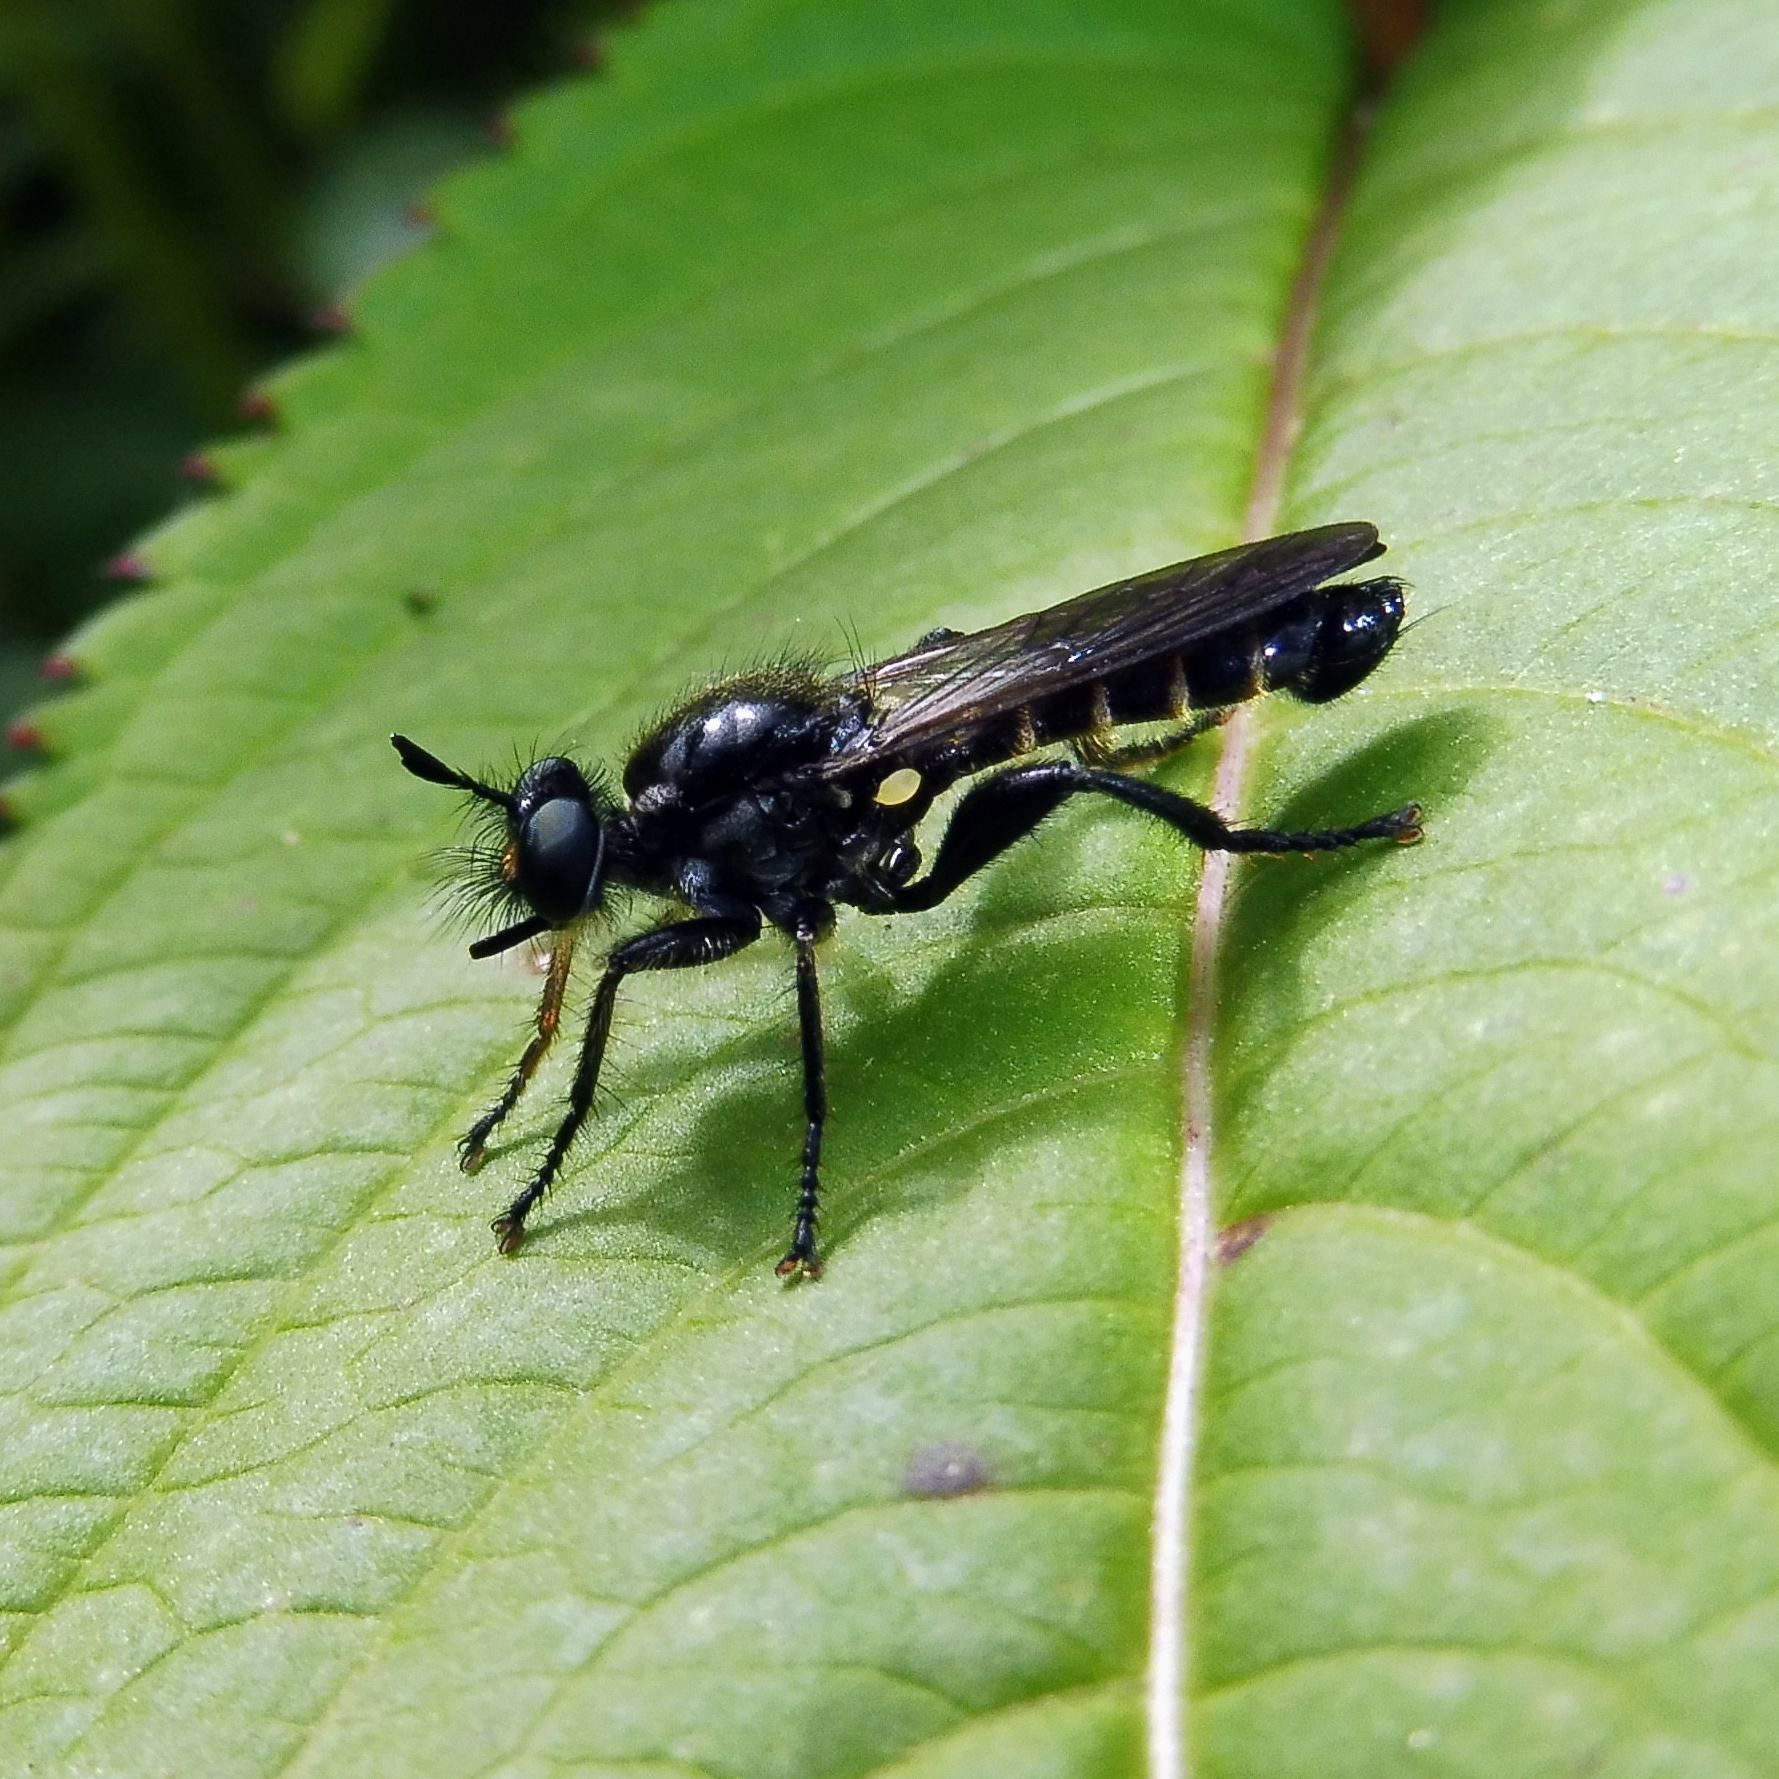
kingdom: Animalia
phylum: Arthropoda
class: Insecta
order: Diptera
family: Asilidae
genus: Lamyra
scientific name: Lamyra marginata
